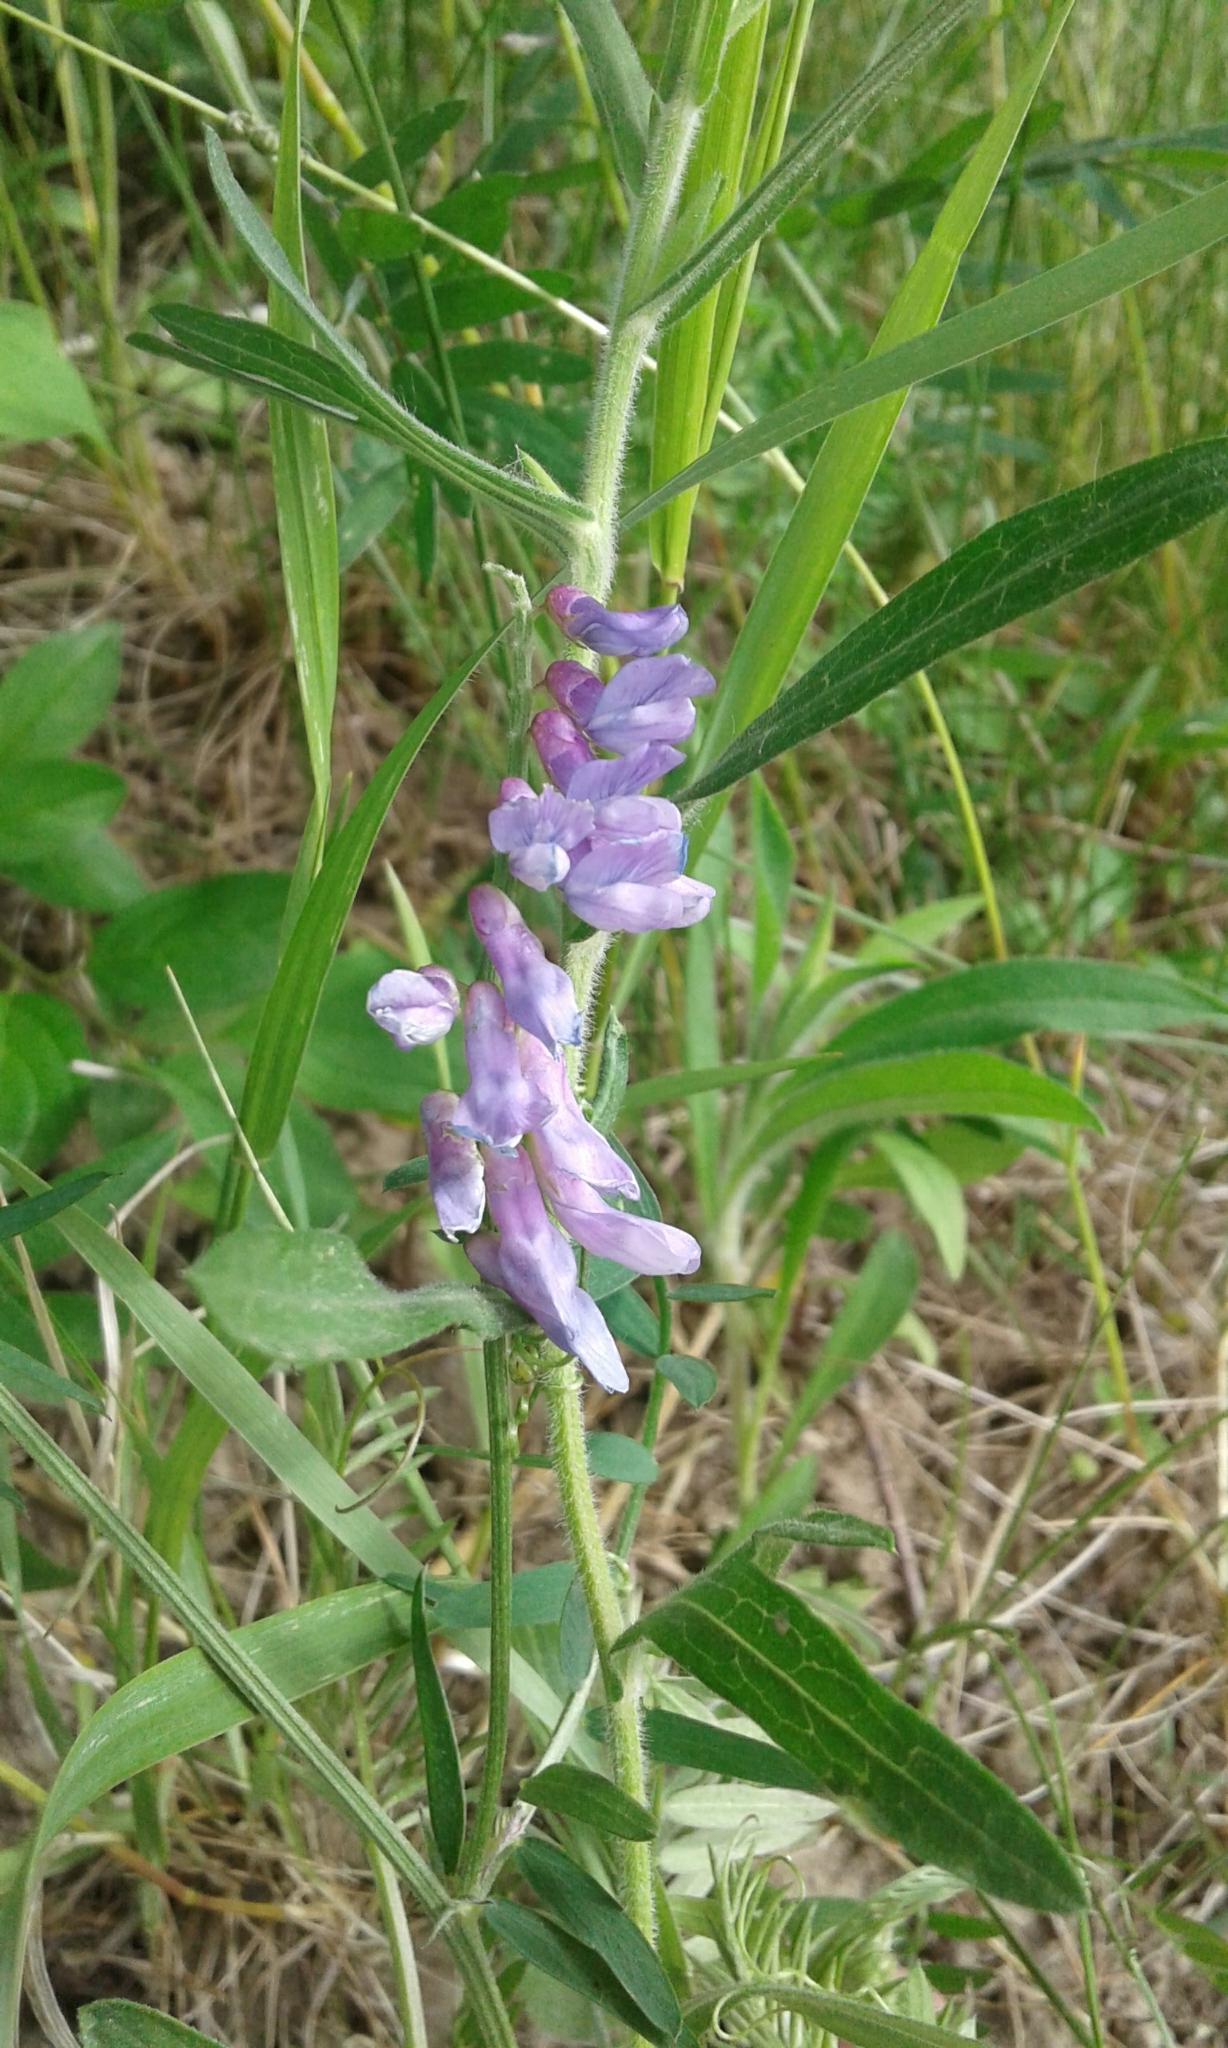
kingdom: Plantae
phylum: Tracheophyta
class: Magnoliopsida
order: Fabales
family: Fabaceae
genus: Vicia
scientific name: Vicia cracca
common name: Bird vetch
